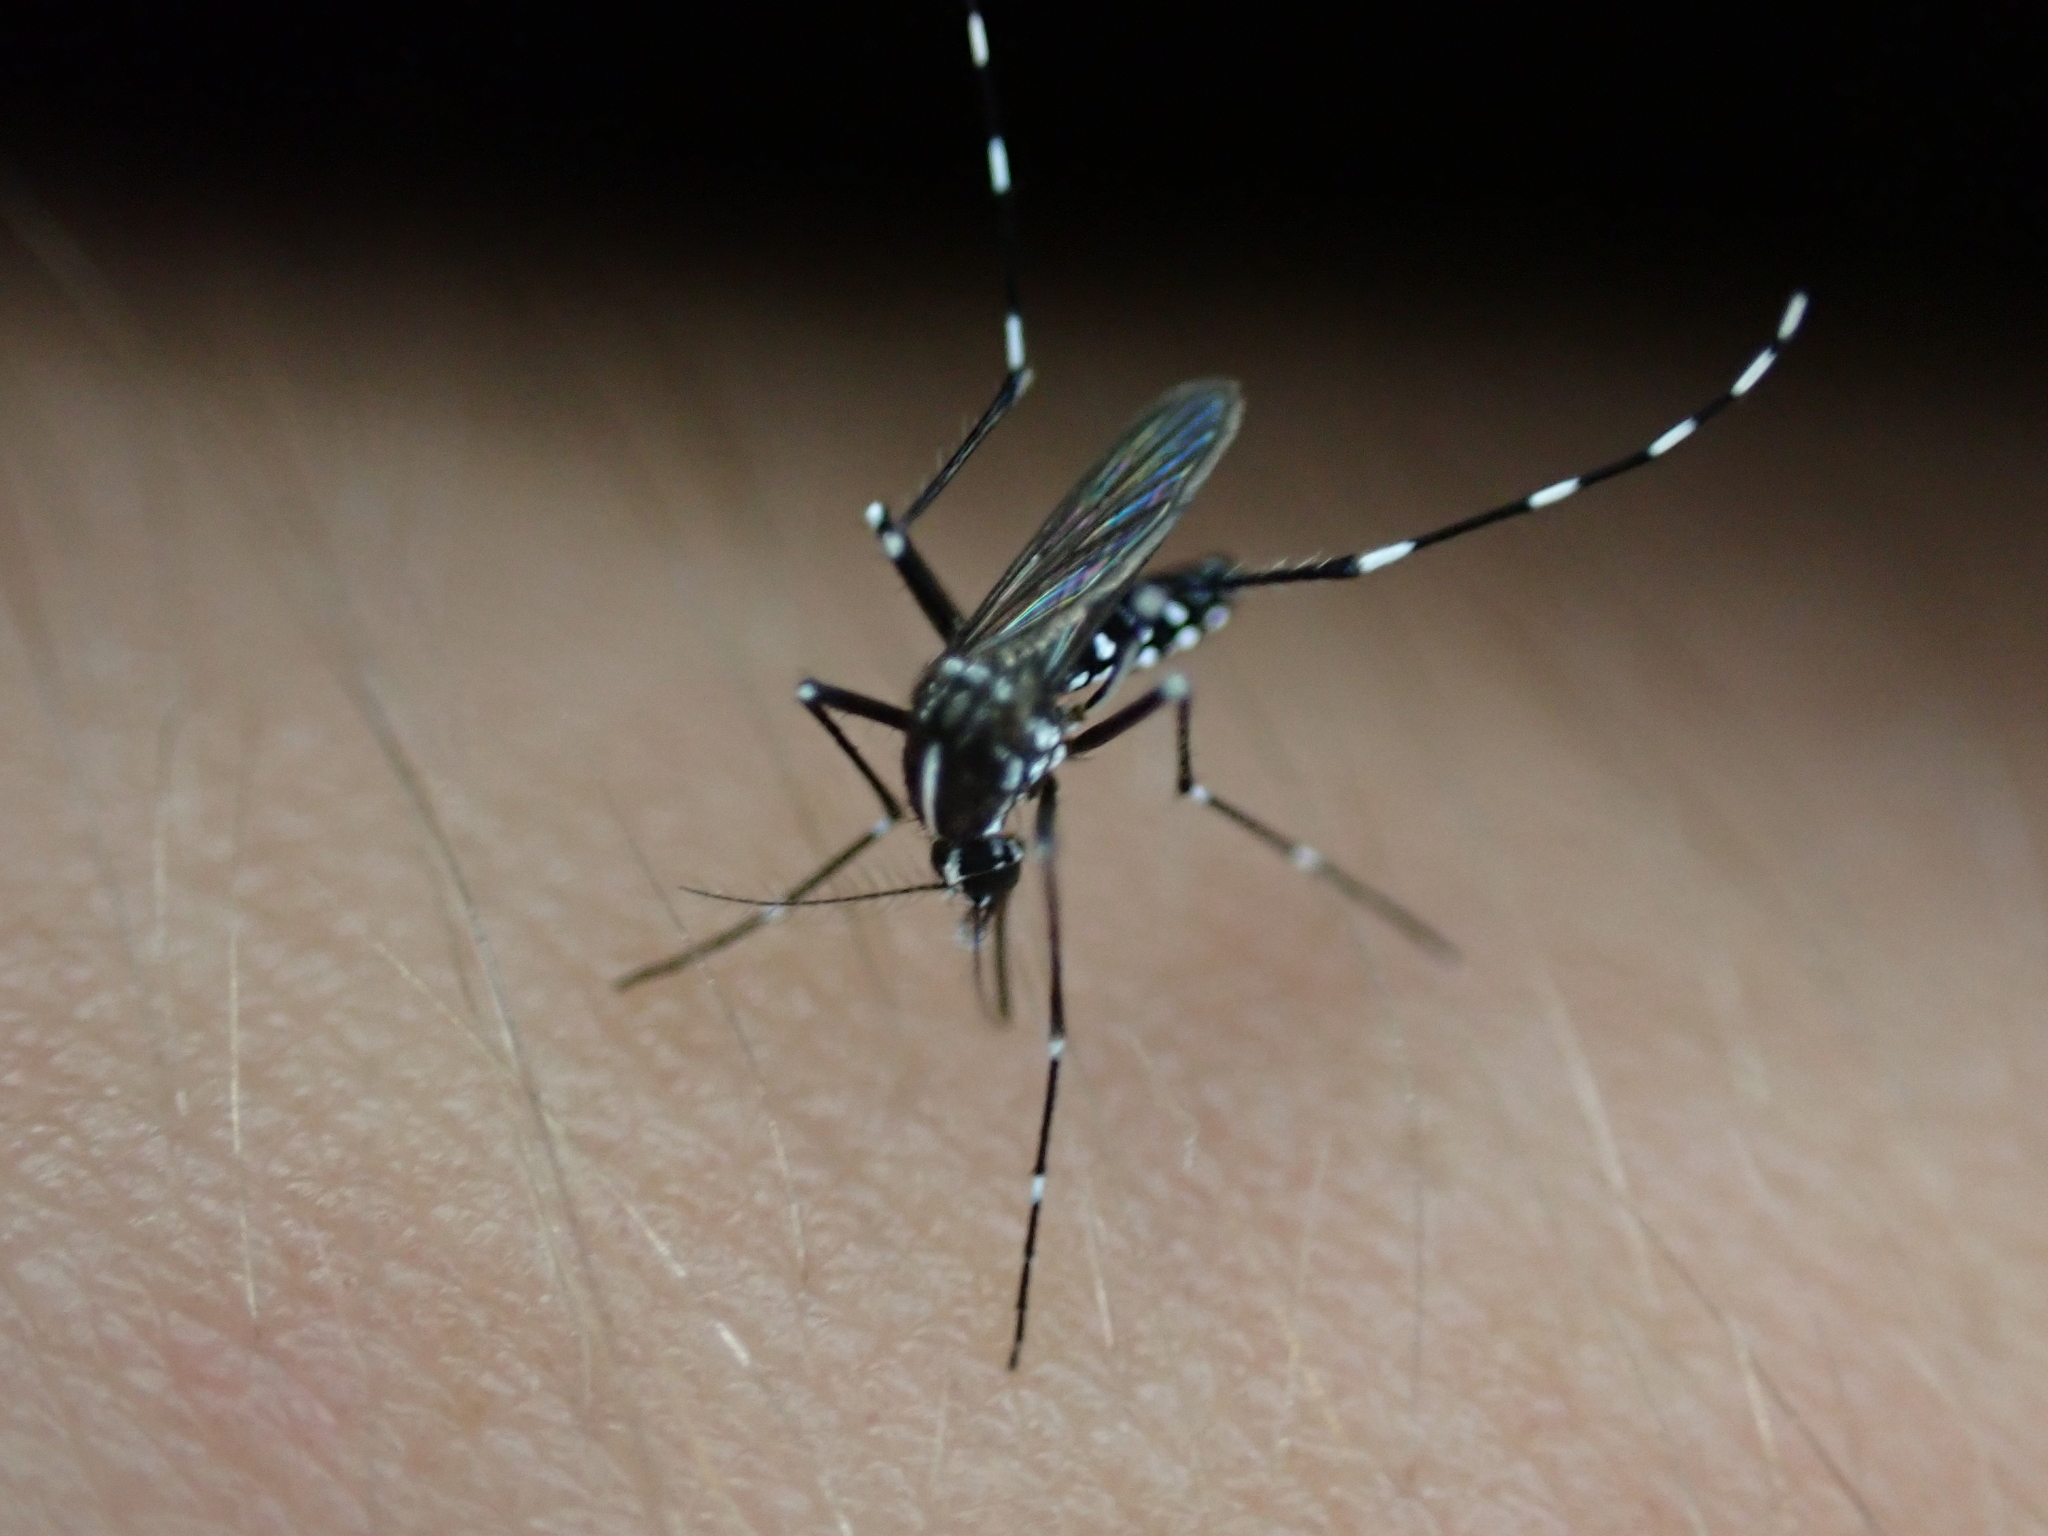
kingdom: Animalia
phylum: Arthropoda
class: Insecta
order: Diptera
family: Culicidae
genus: Aedes
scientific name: Aedes albopictus
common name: Tiger mosquito
